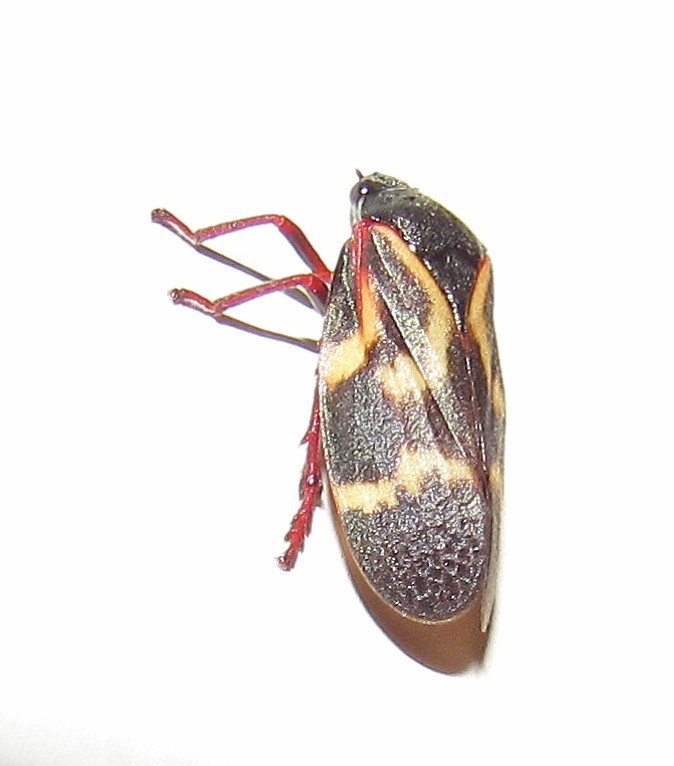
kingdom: Animalia
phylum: Arthropoda
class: Insecta
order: Hemiptera
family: Cercopidae
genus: Deois
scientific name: Deois flexuosa
